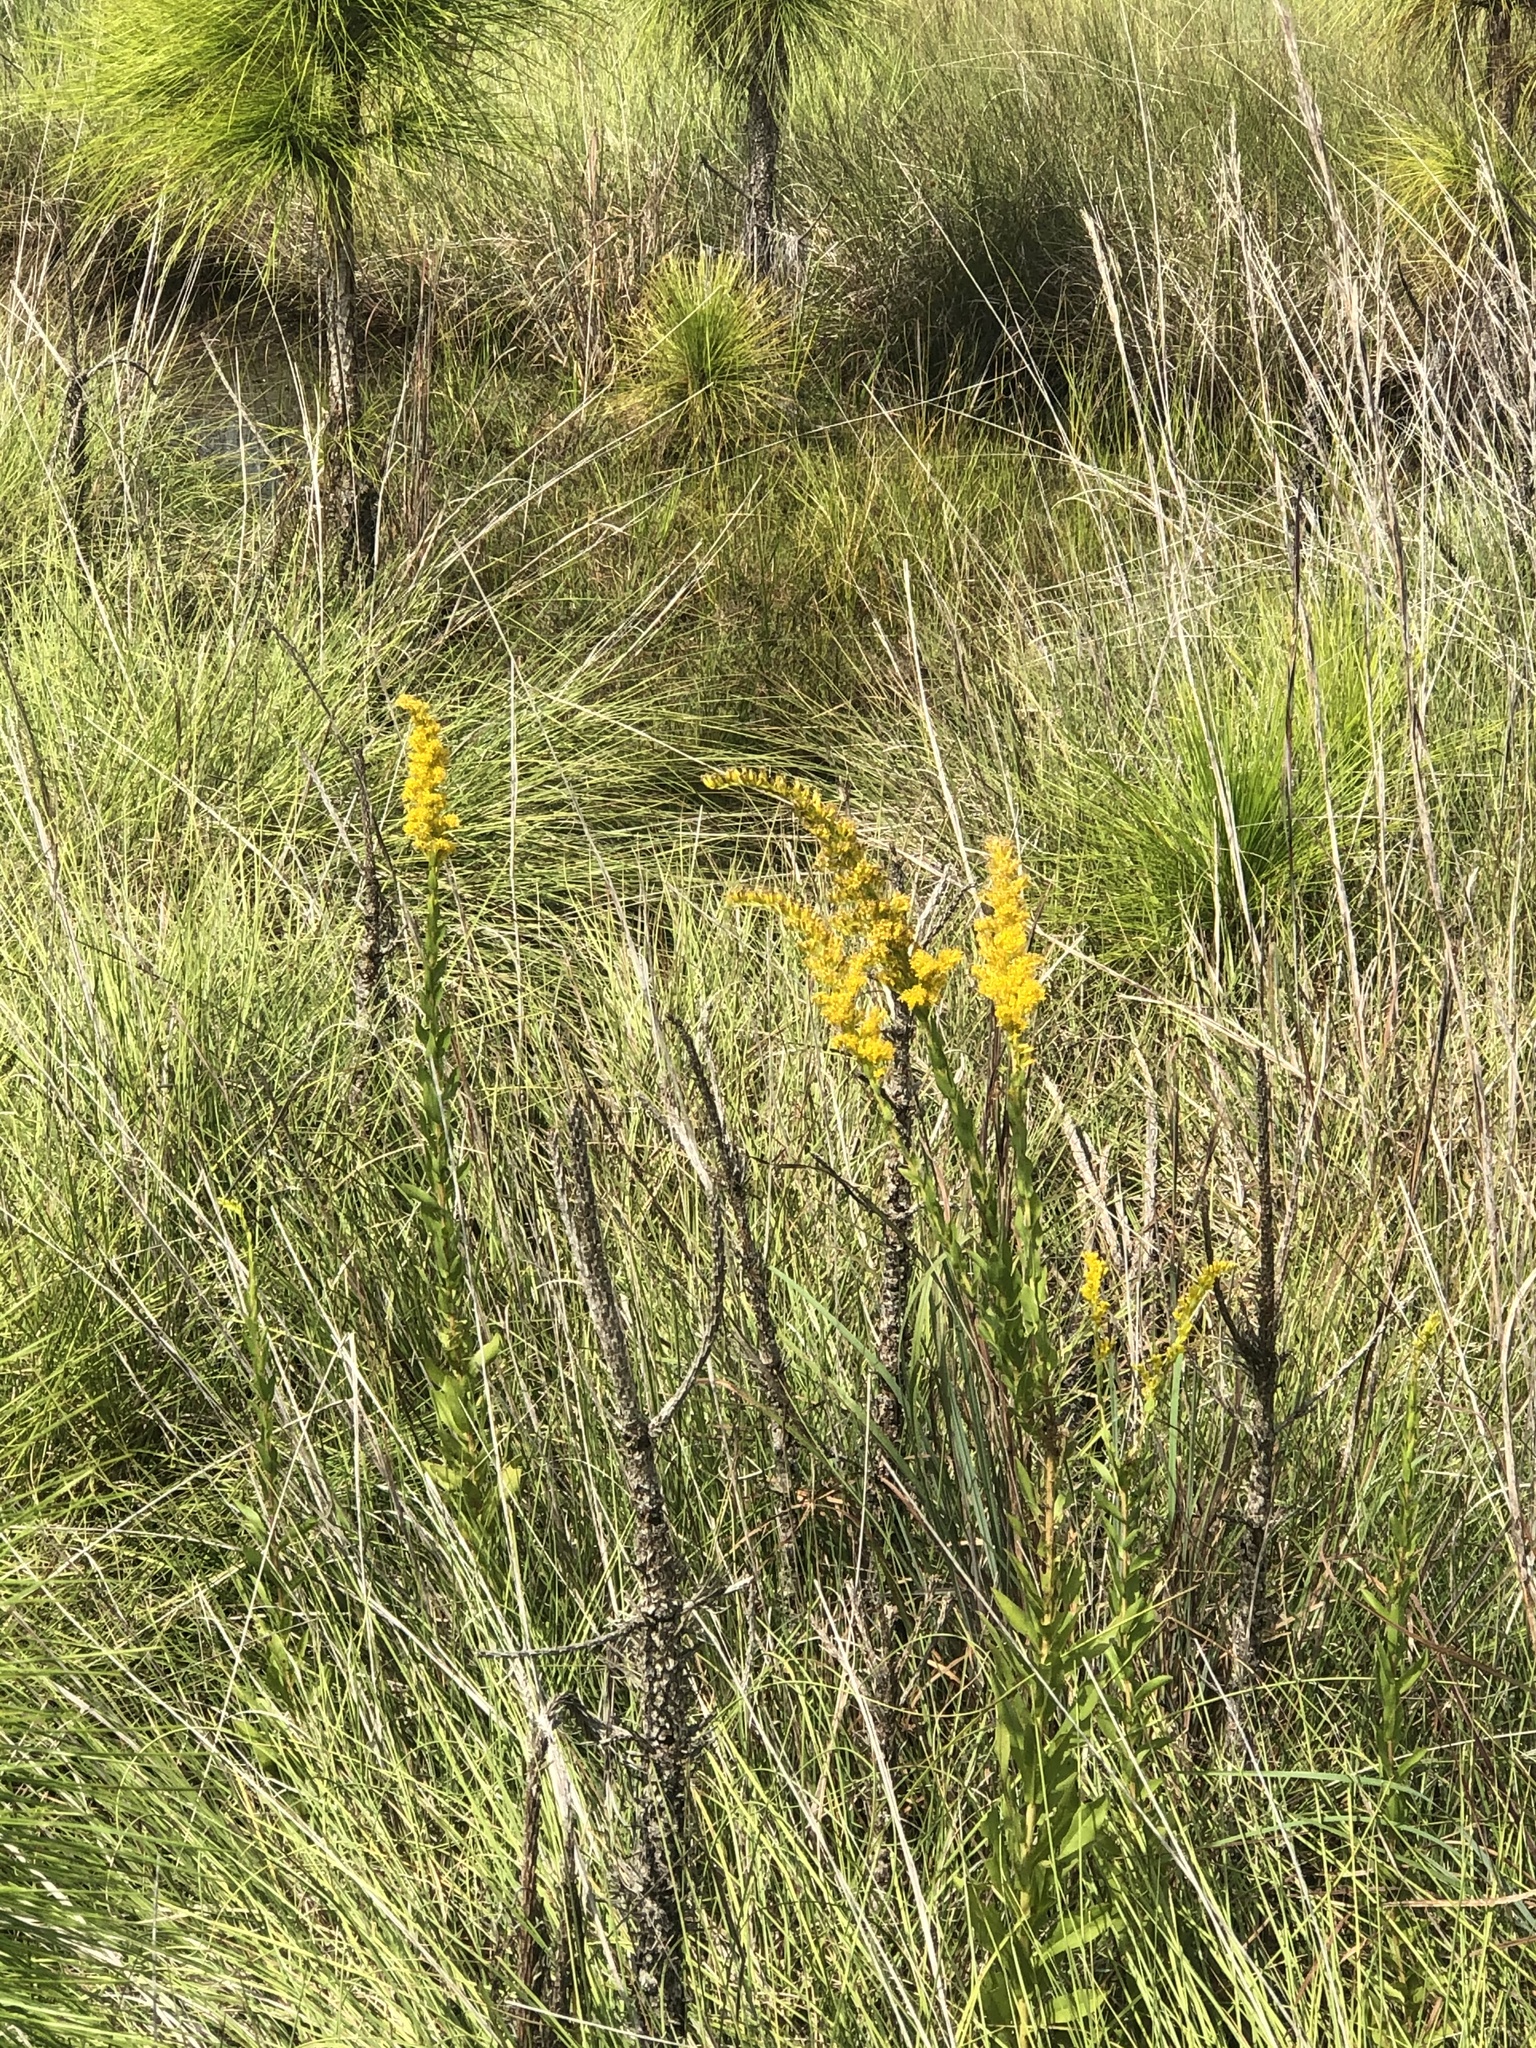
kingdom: Plantae
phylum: Tracheophyta
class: Magnoliopsida
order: Asterales
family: Asteraceae
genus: Solidago
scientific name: Solidago fistulosa
